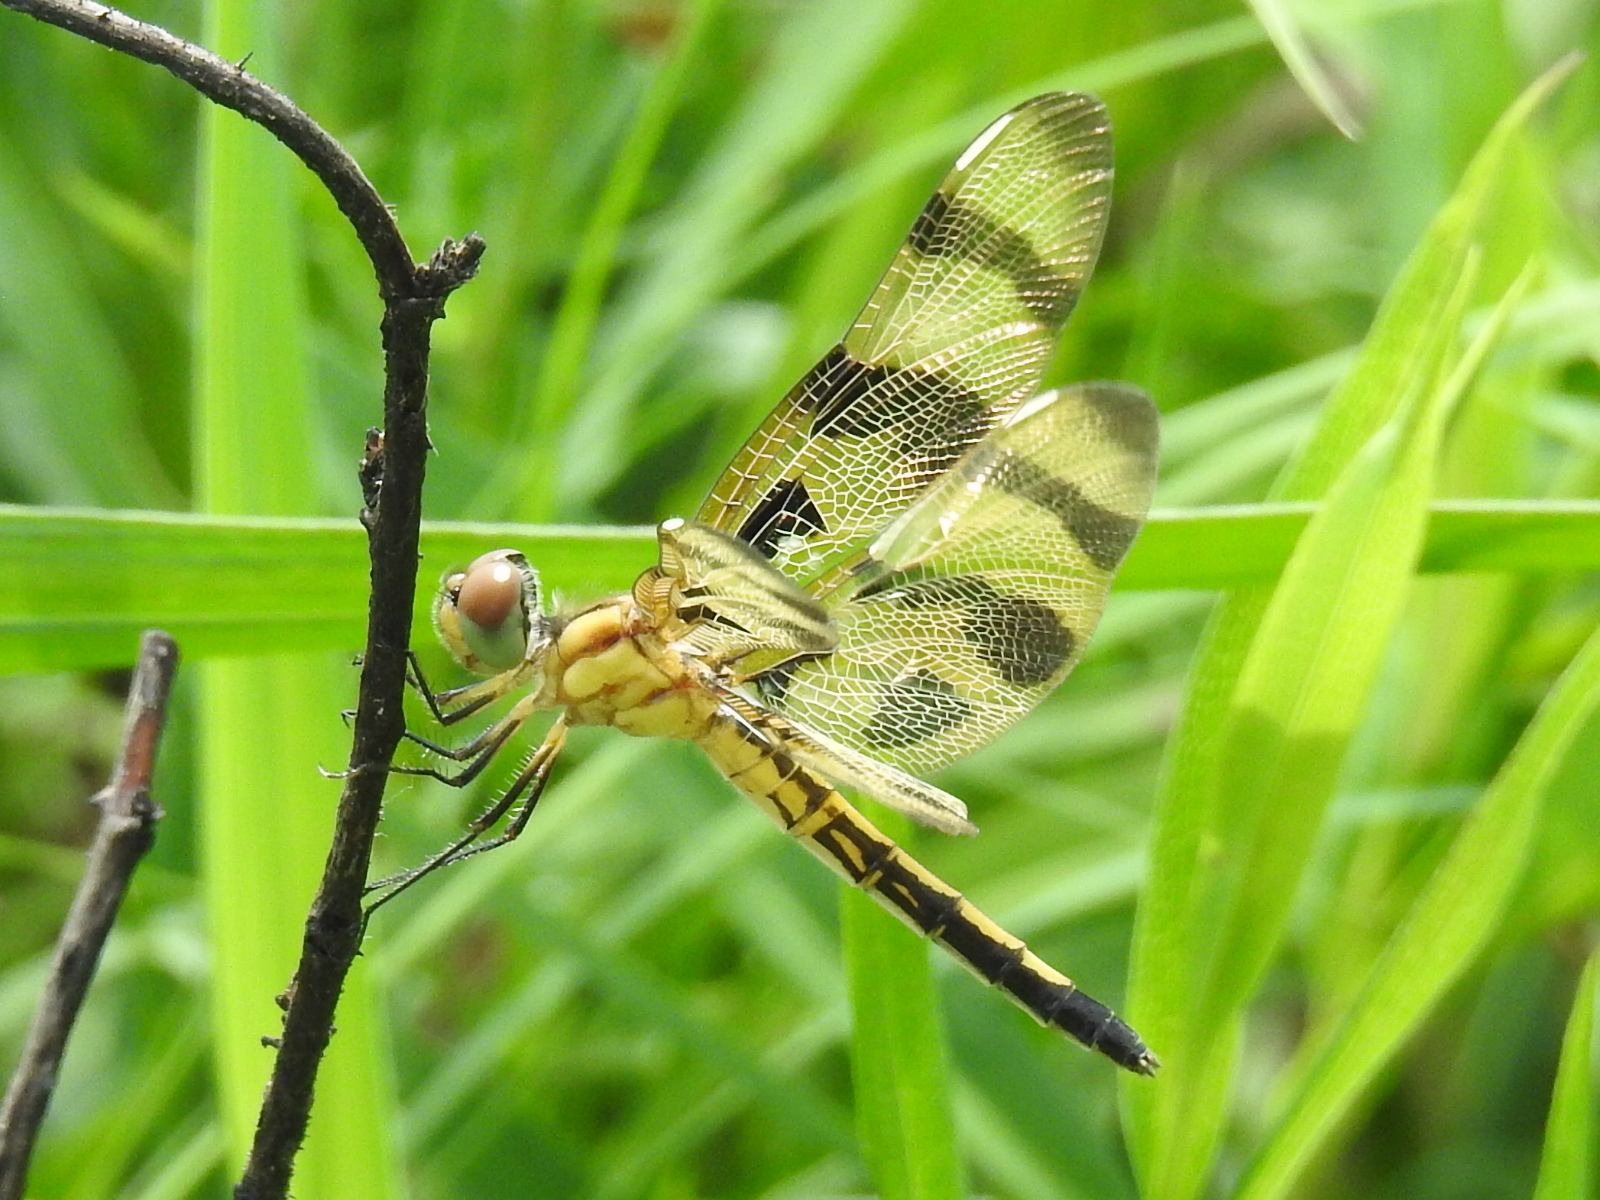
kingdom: Animalia
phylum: Arthropoda
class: Insecta
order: Odonata
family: Libellulidae
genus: Celithemis
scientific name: Celithemis eponina
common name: Halloween pennant
